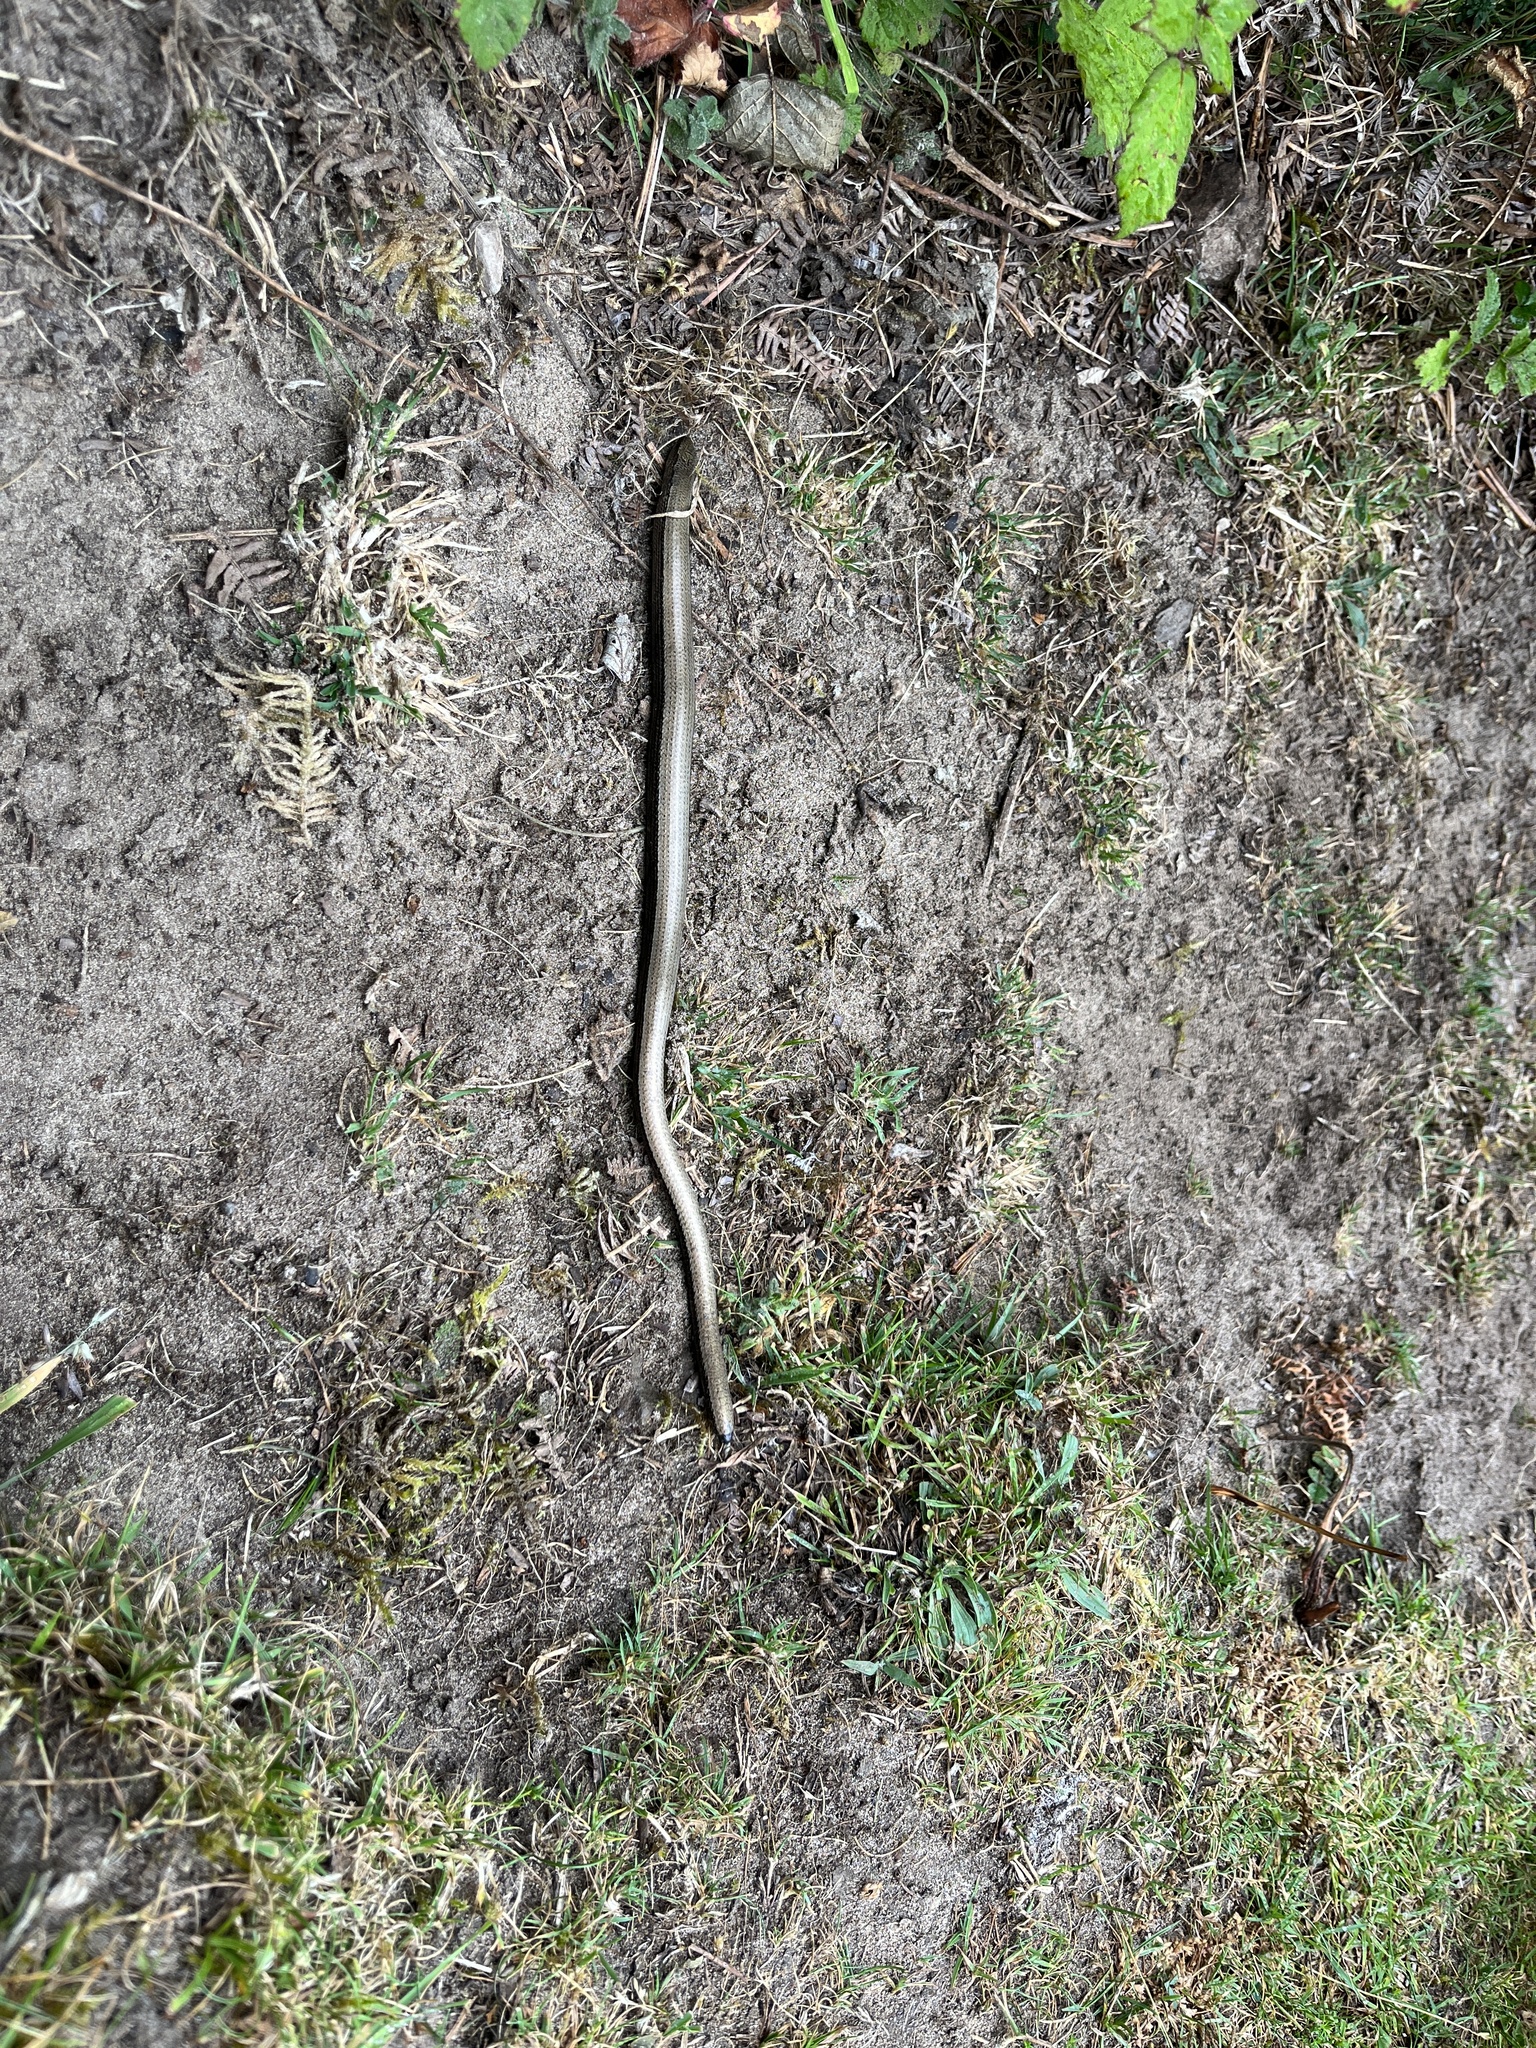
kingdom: Animalia
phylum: Chordata
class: Squamata
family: Anguidae
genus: Anguis
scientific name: Anguis fragilis
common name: Slow worm
